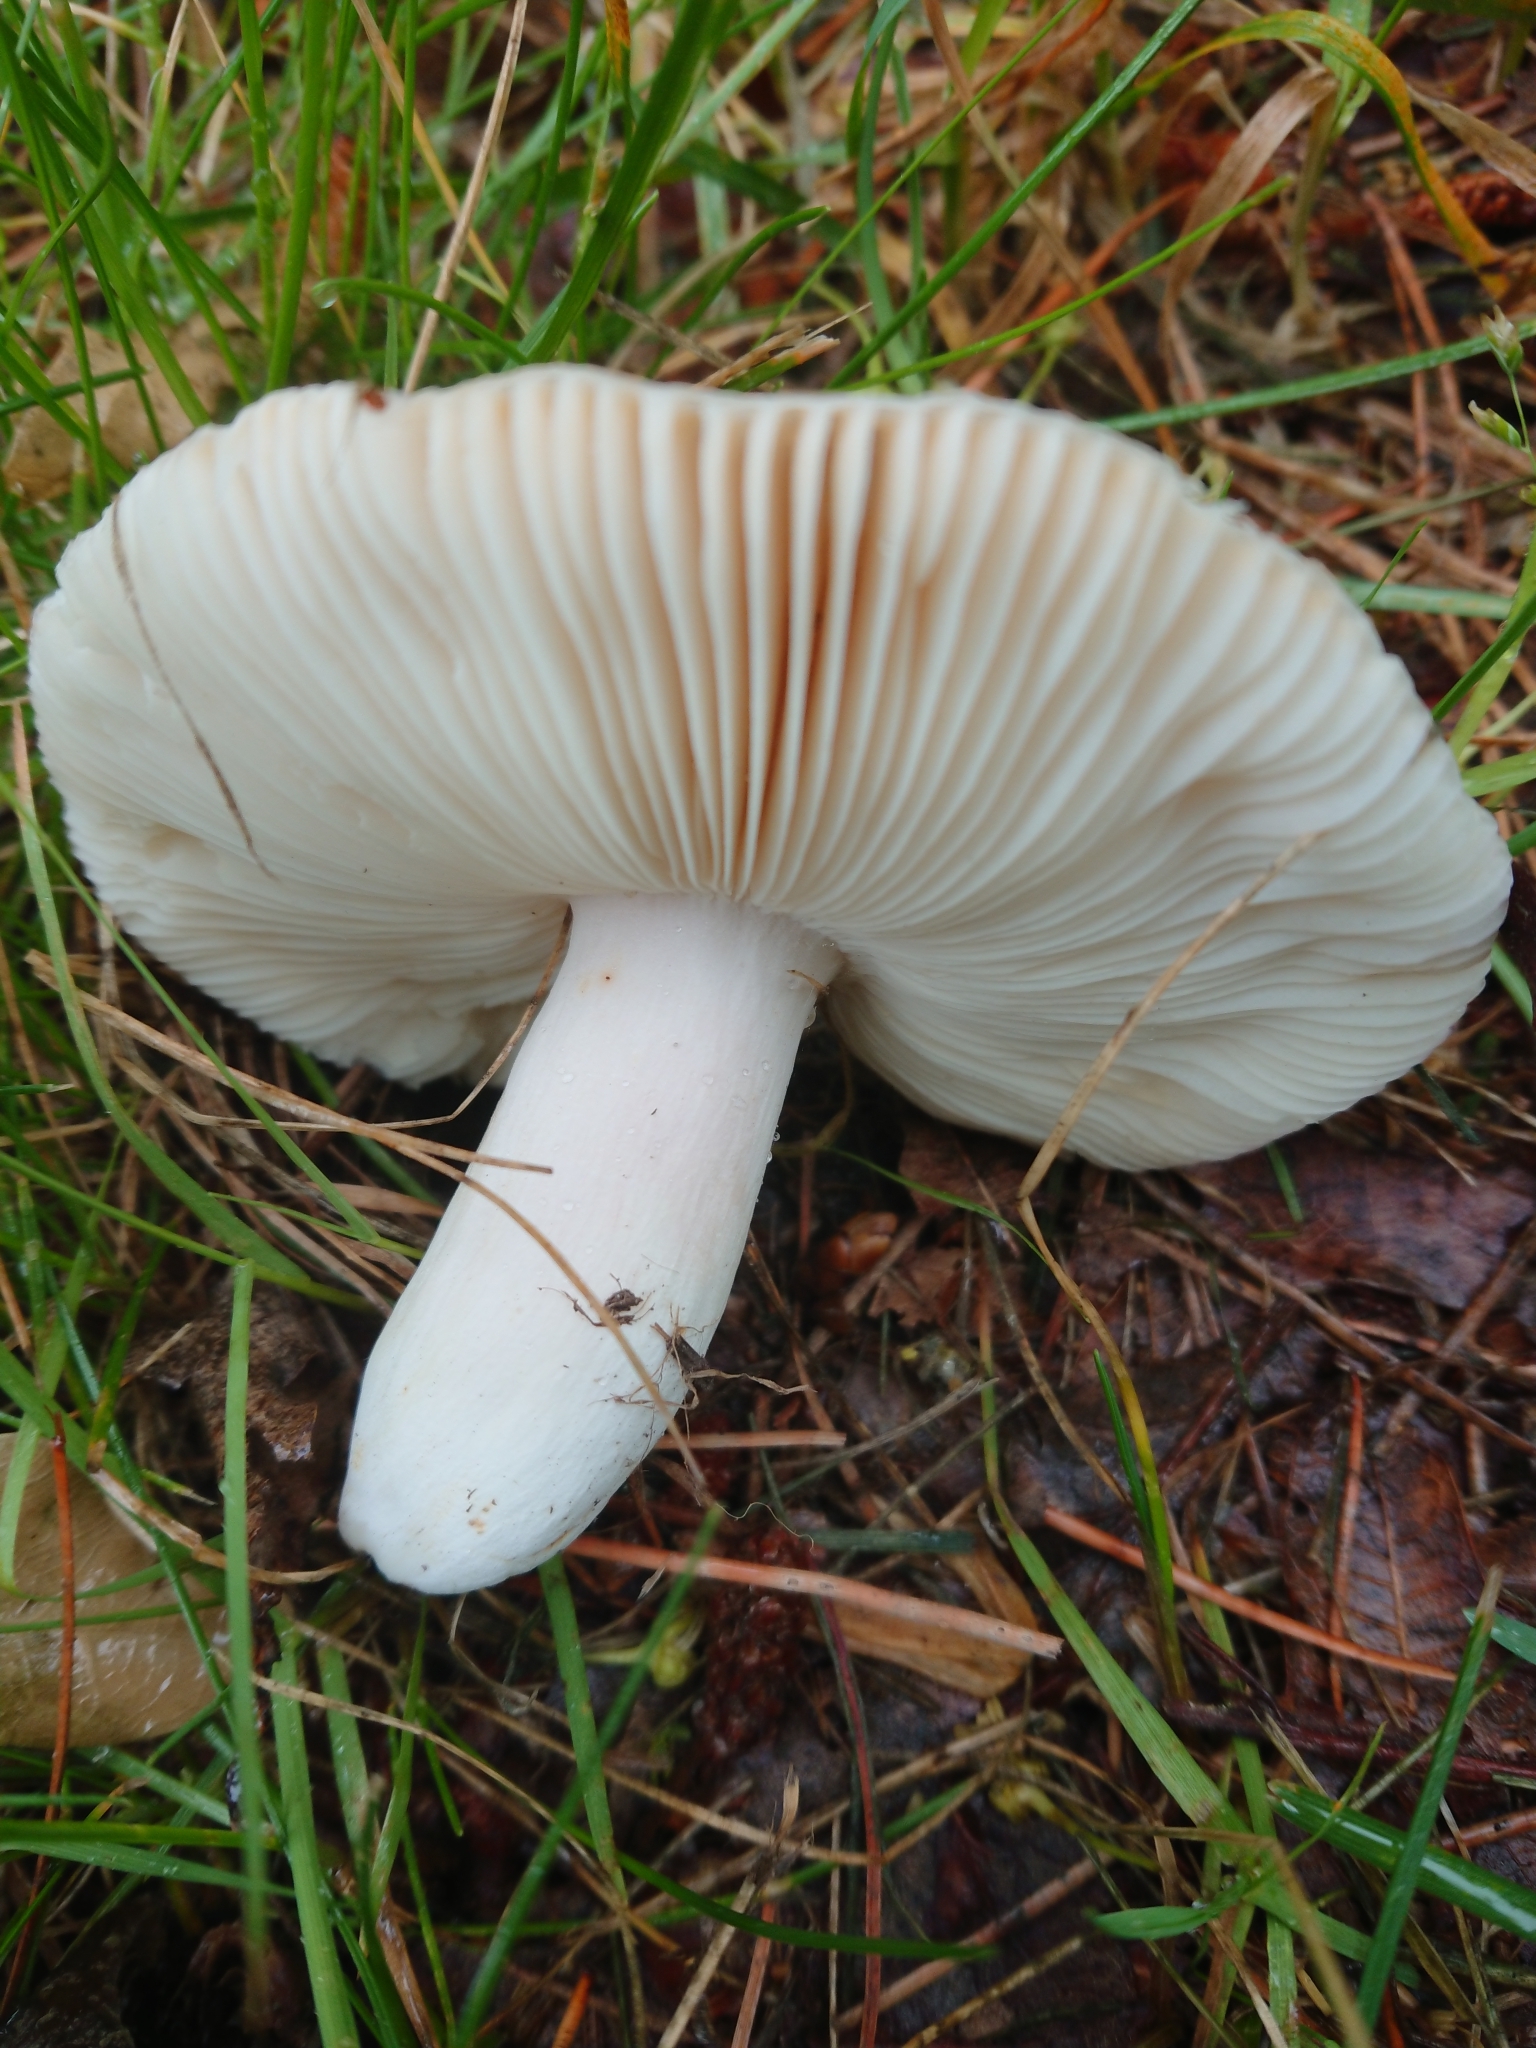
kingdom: Fungi
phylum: Basidiomycota
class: Agaricomycetes
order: Russulales
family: Russulaceae
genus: Russula
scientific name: Russula grisea
